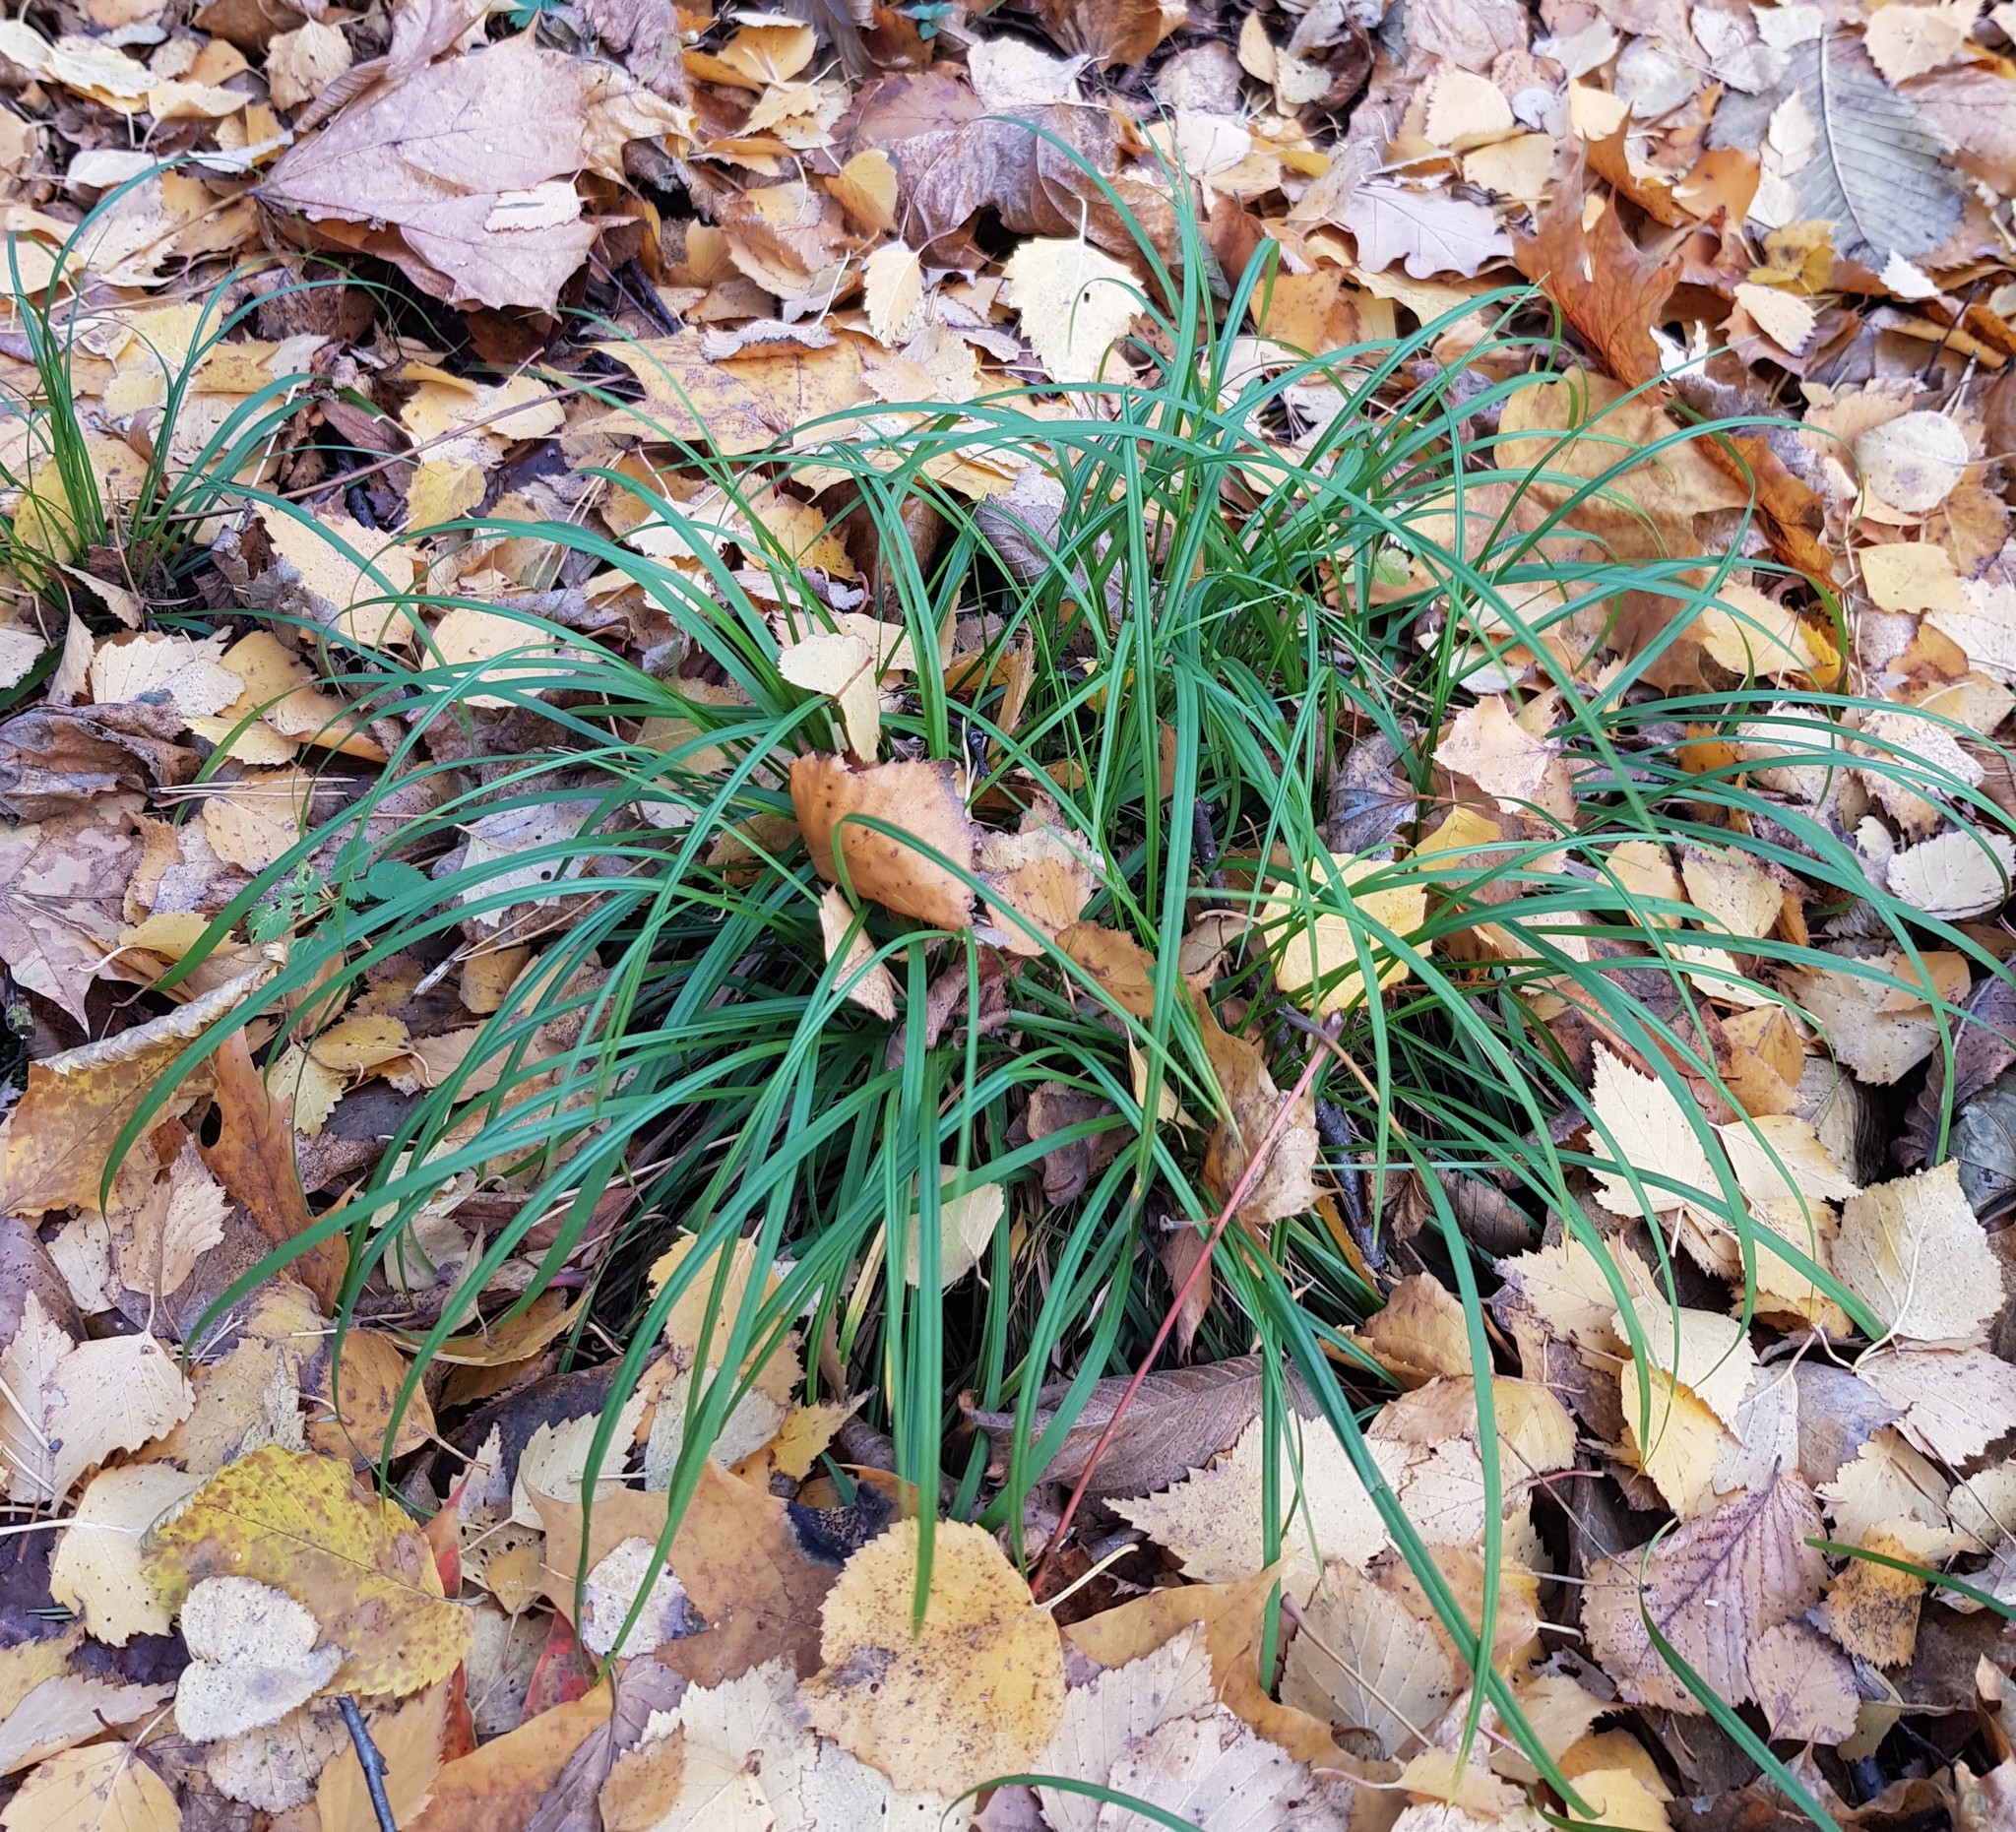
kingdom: Plantae
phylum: Tracheophyta
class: Liliopsida
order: Poales
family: Cyperaceae
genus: Carex
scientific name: Carex digitata
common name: Fingered sedge
